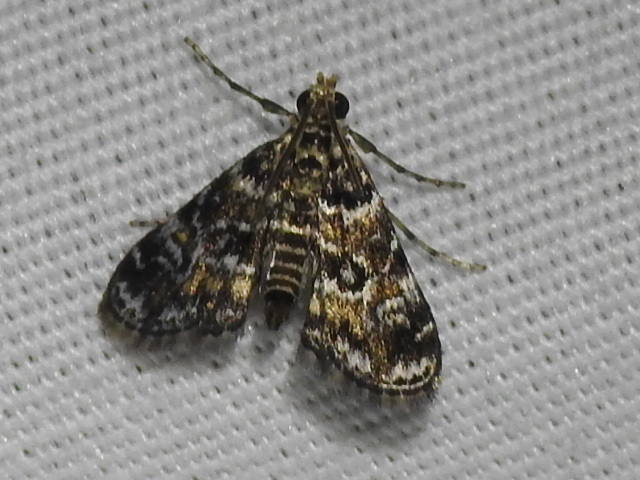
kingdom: Animalia
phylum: Arthropoda
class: Insecta
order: Lepidoptera
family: Crambidae
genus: Elophila
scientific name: Elophila obliteralis
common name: Waterlily leafcutter moth
